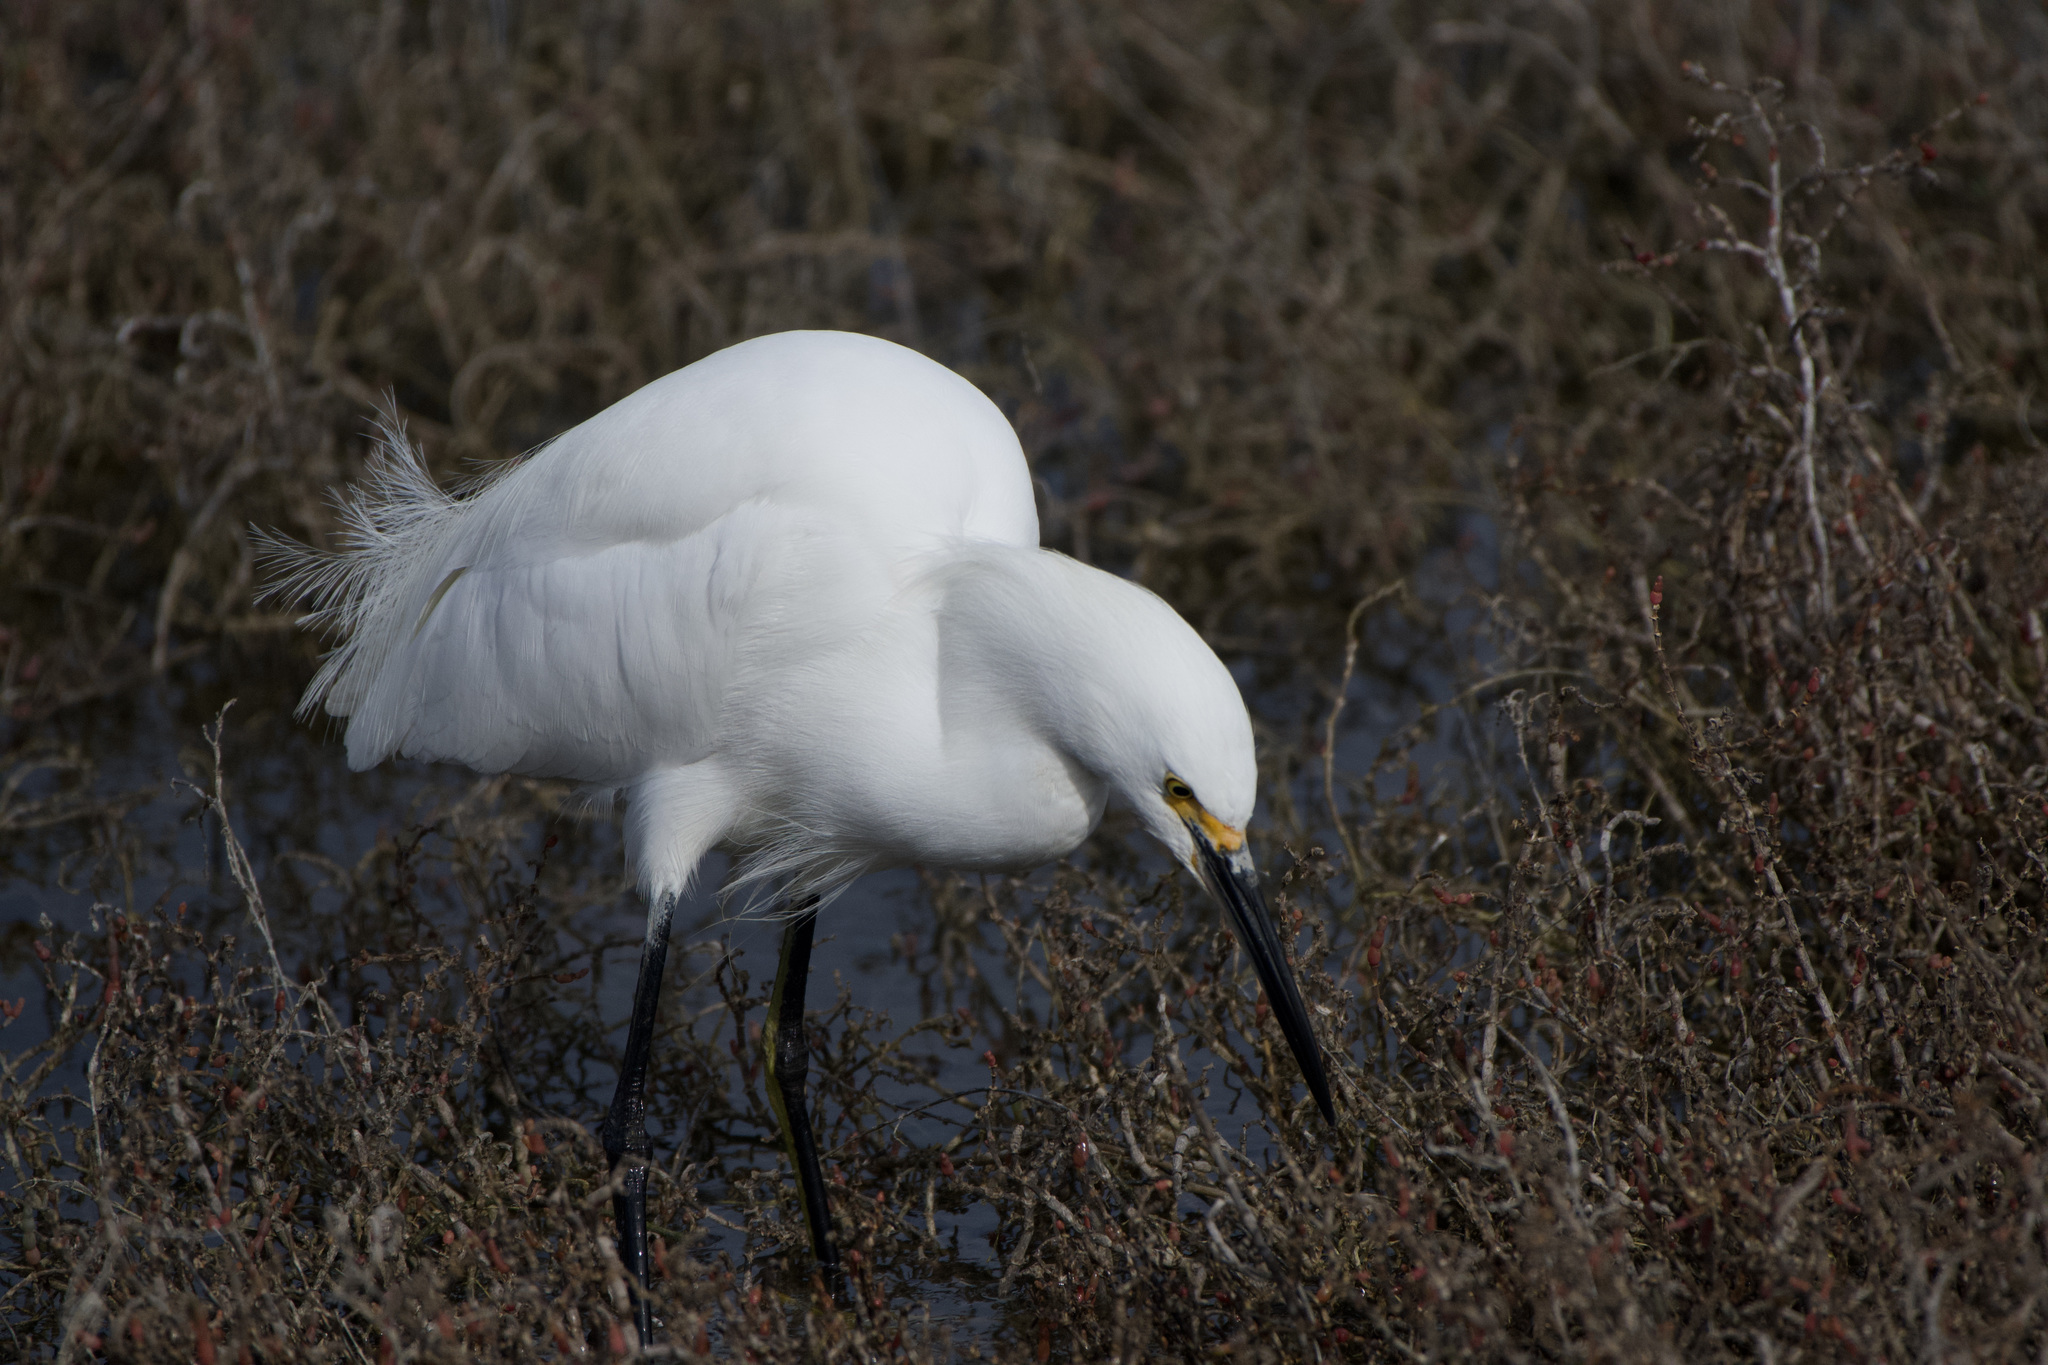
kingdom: Animalia
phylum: Chordata
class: Aves
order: Pelecaniformes
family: Ardeidae
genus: Egretta
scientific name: Egretta thula
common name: Snowy egret
